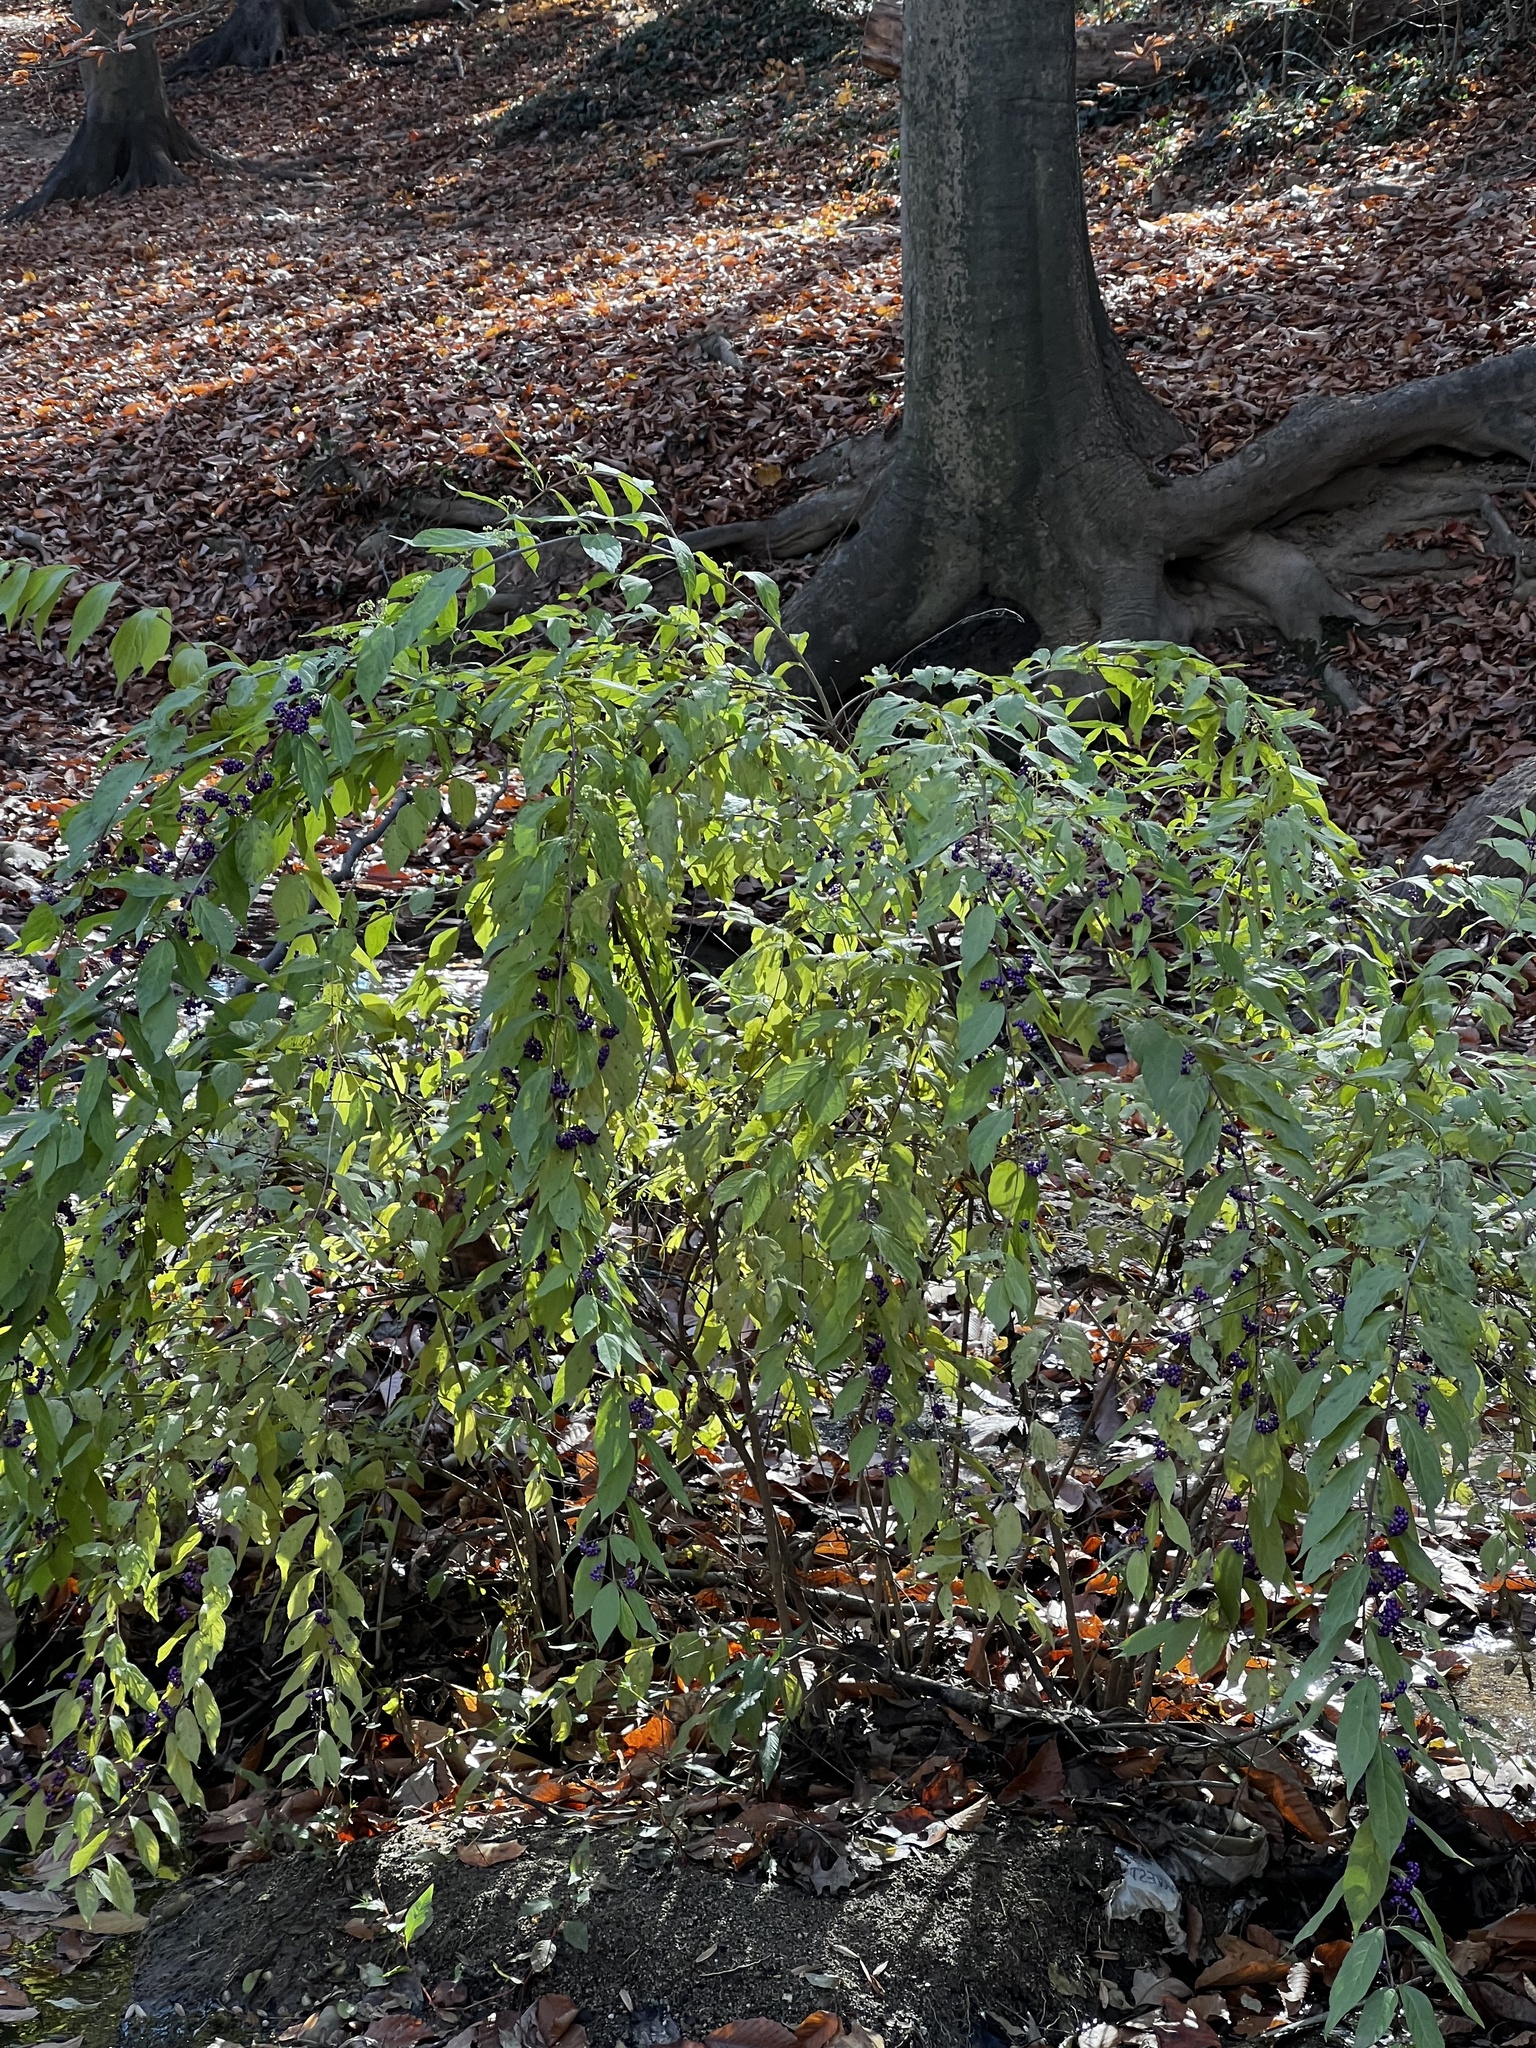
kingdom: Plantae
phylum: Tracheophyta
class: Magnoliopsida
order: Lamiales
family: Lamiaceae
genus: Callicarpa
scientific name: Callicarpa dichotoma
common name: Purple beauty-berry
